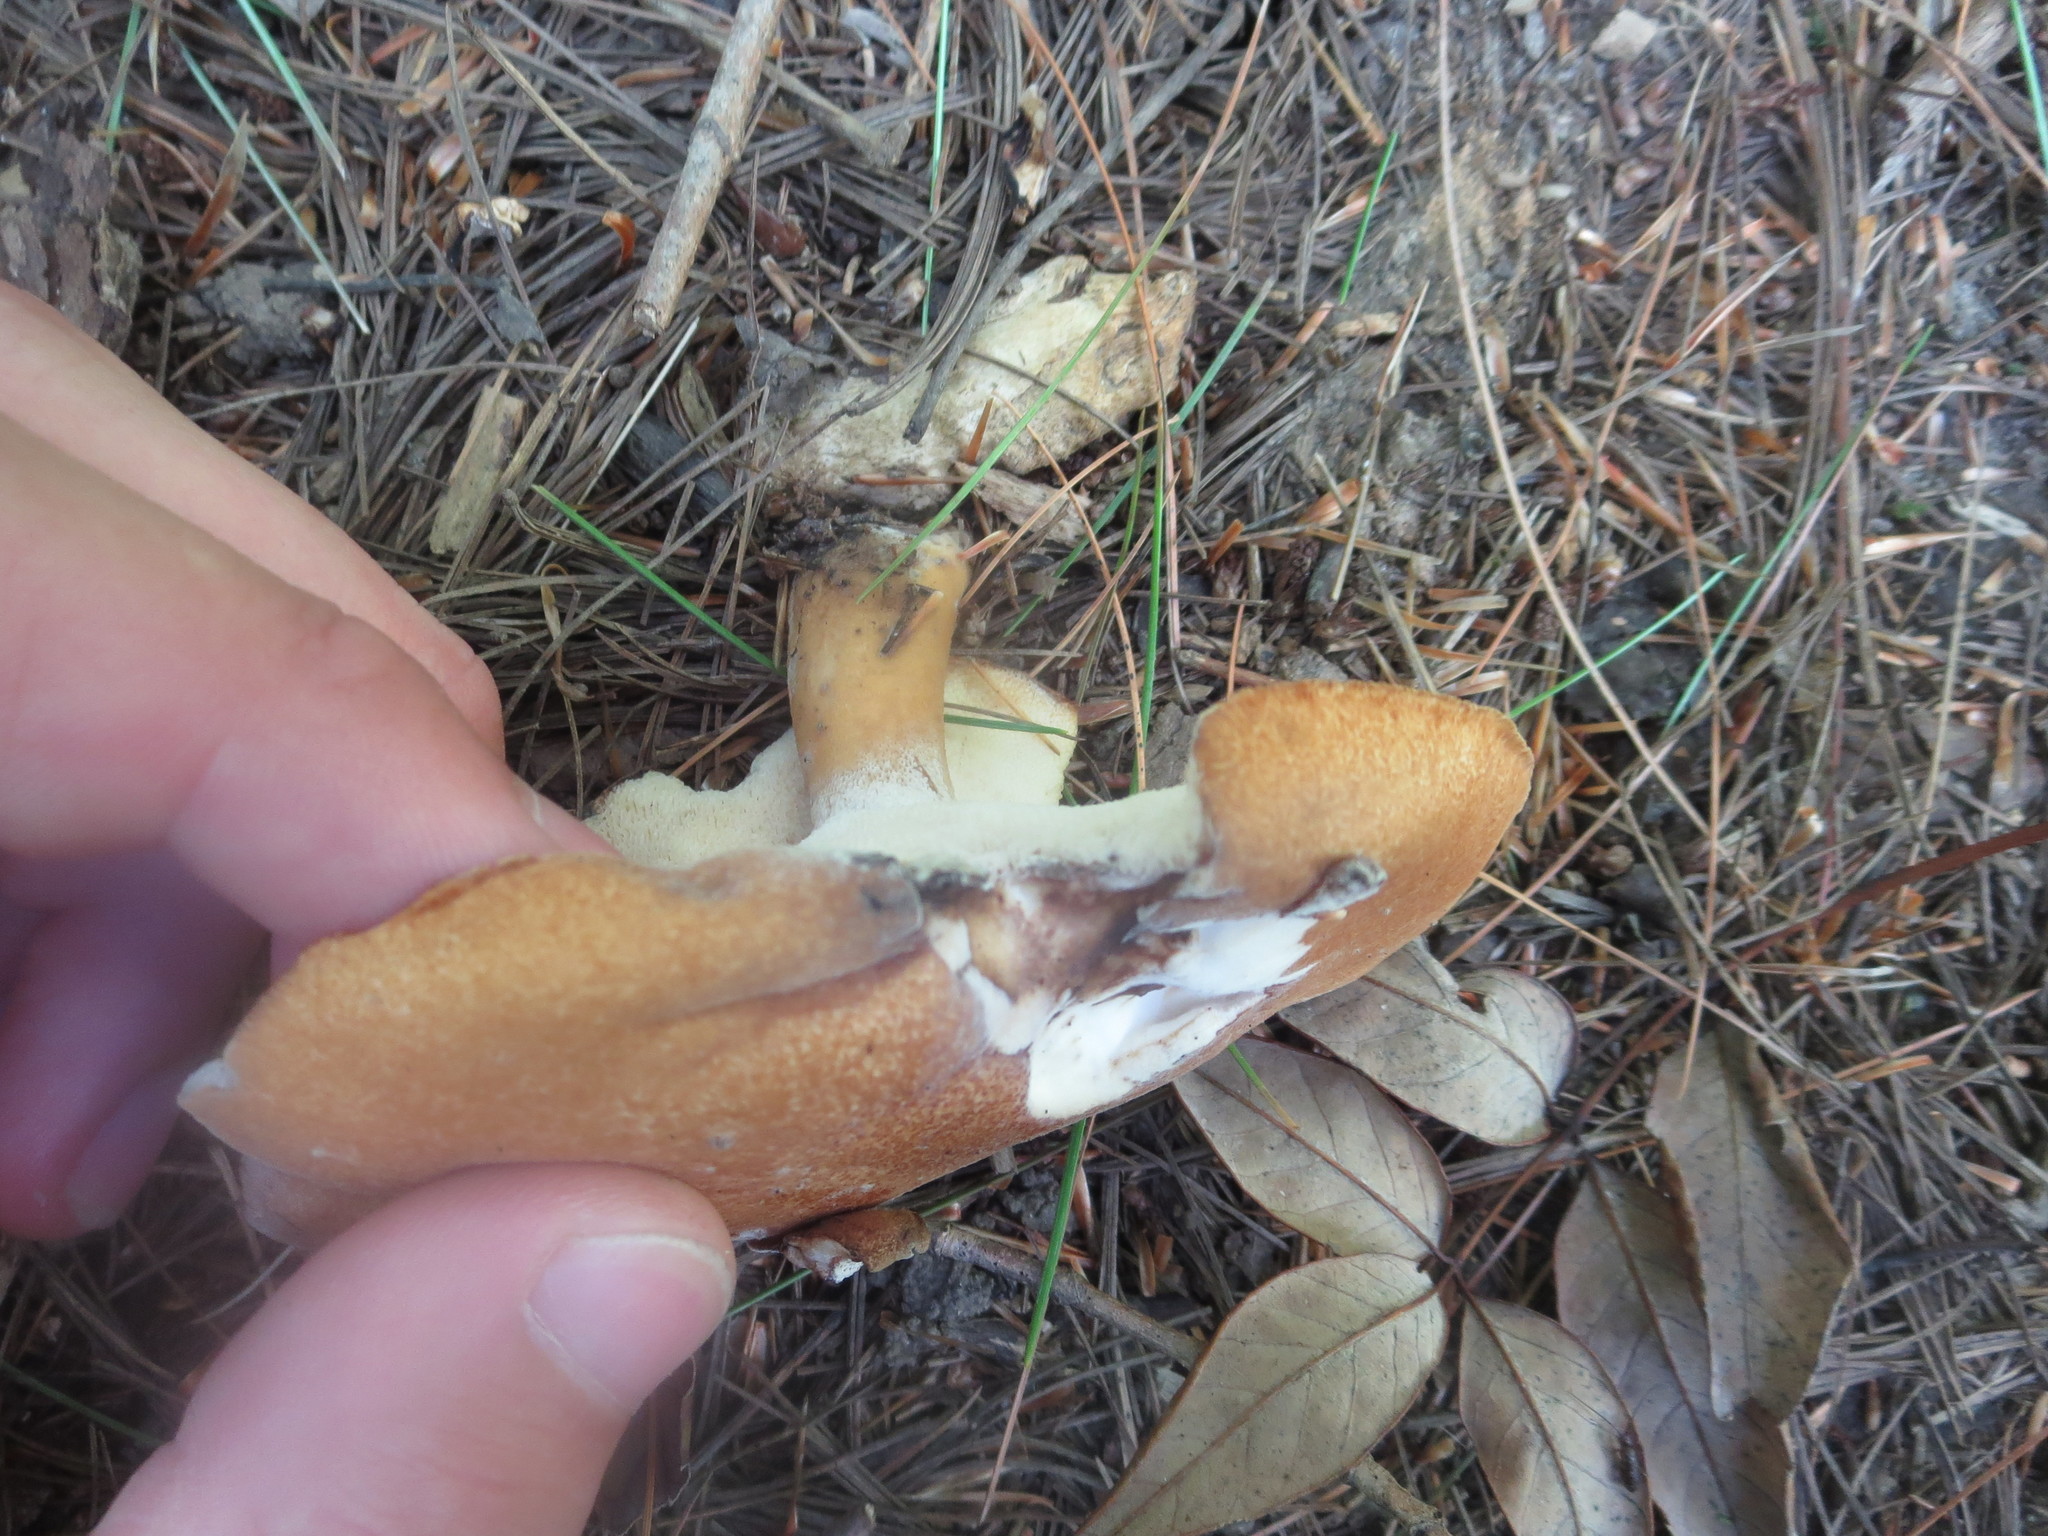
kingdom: Fungi
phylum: Basidiomycota
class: Agaricomycetes
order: Polyporales
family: Polyporaceae
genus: Polyporus
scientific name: Polyporus radicatus
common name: Rooting polypore
